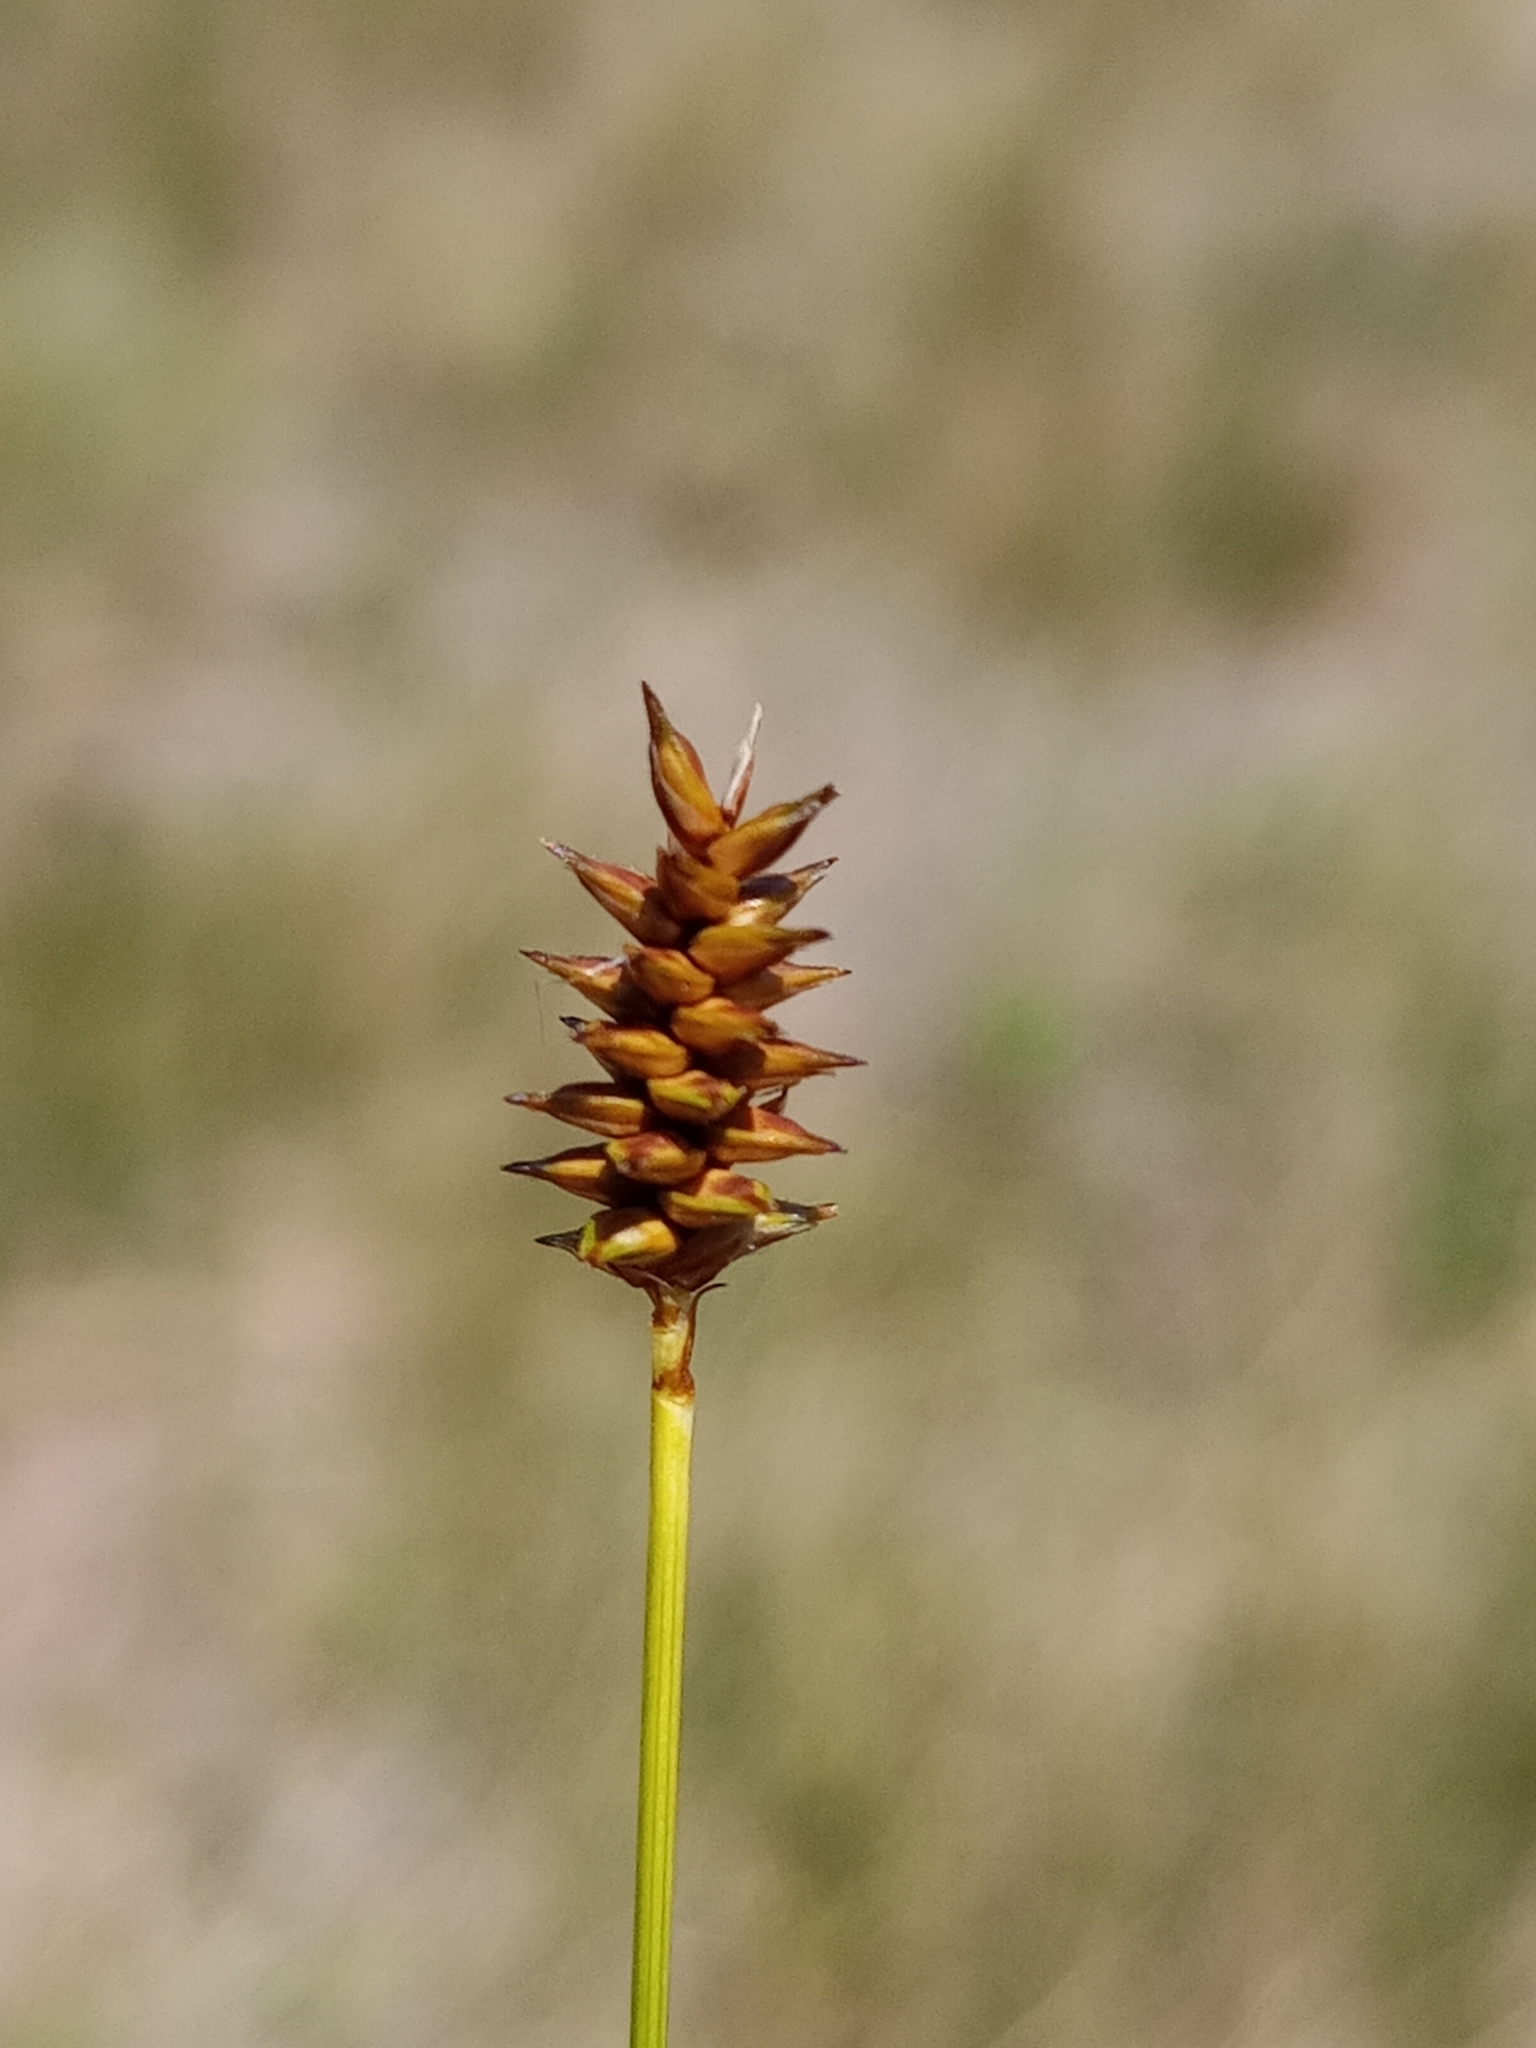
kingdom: Plantae
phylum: Tracheophyta
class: Liliopsida
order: Poales
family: Cyperaceae
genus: Carex
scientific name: Carex exilis
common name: Coastal sedge
